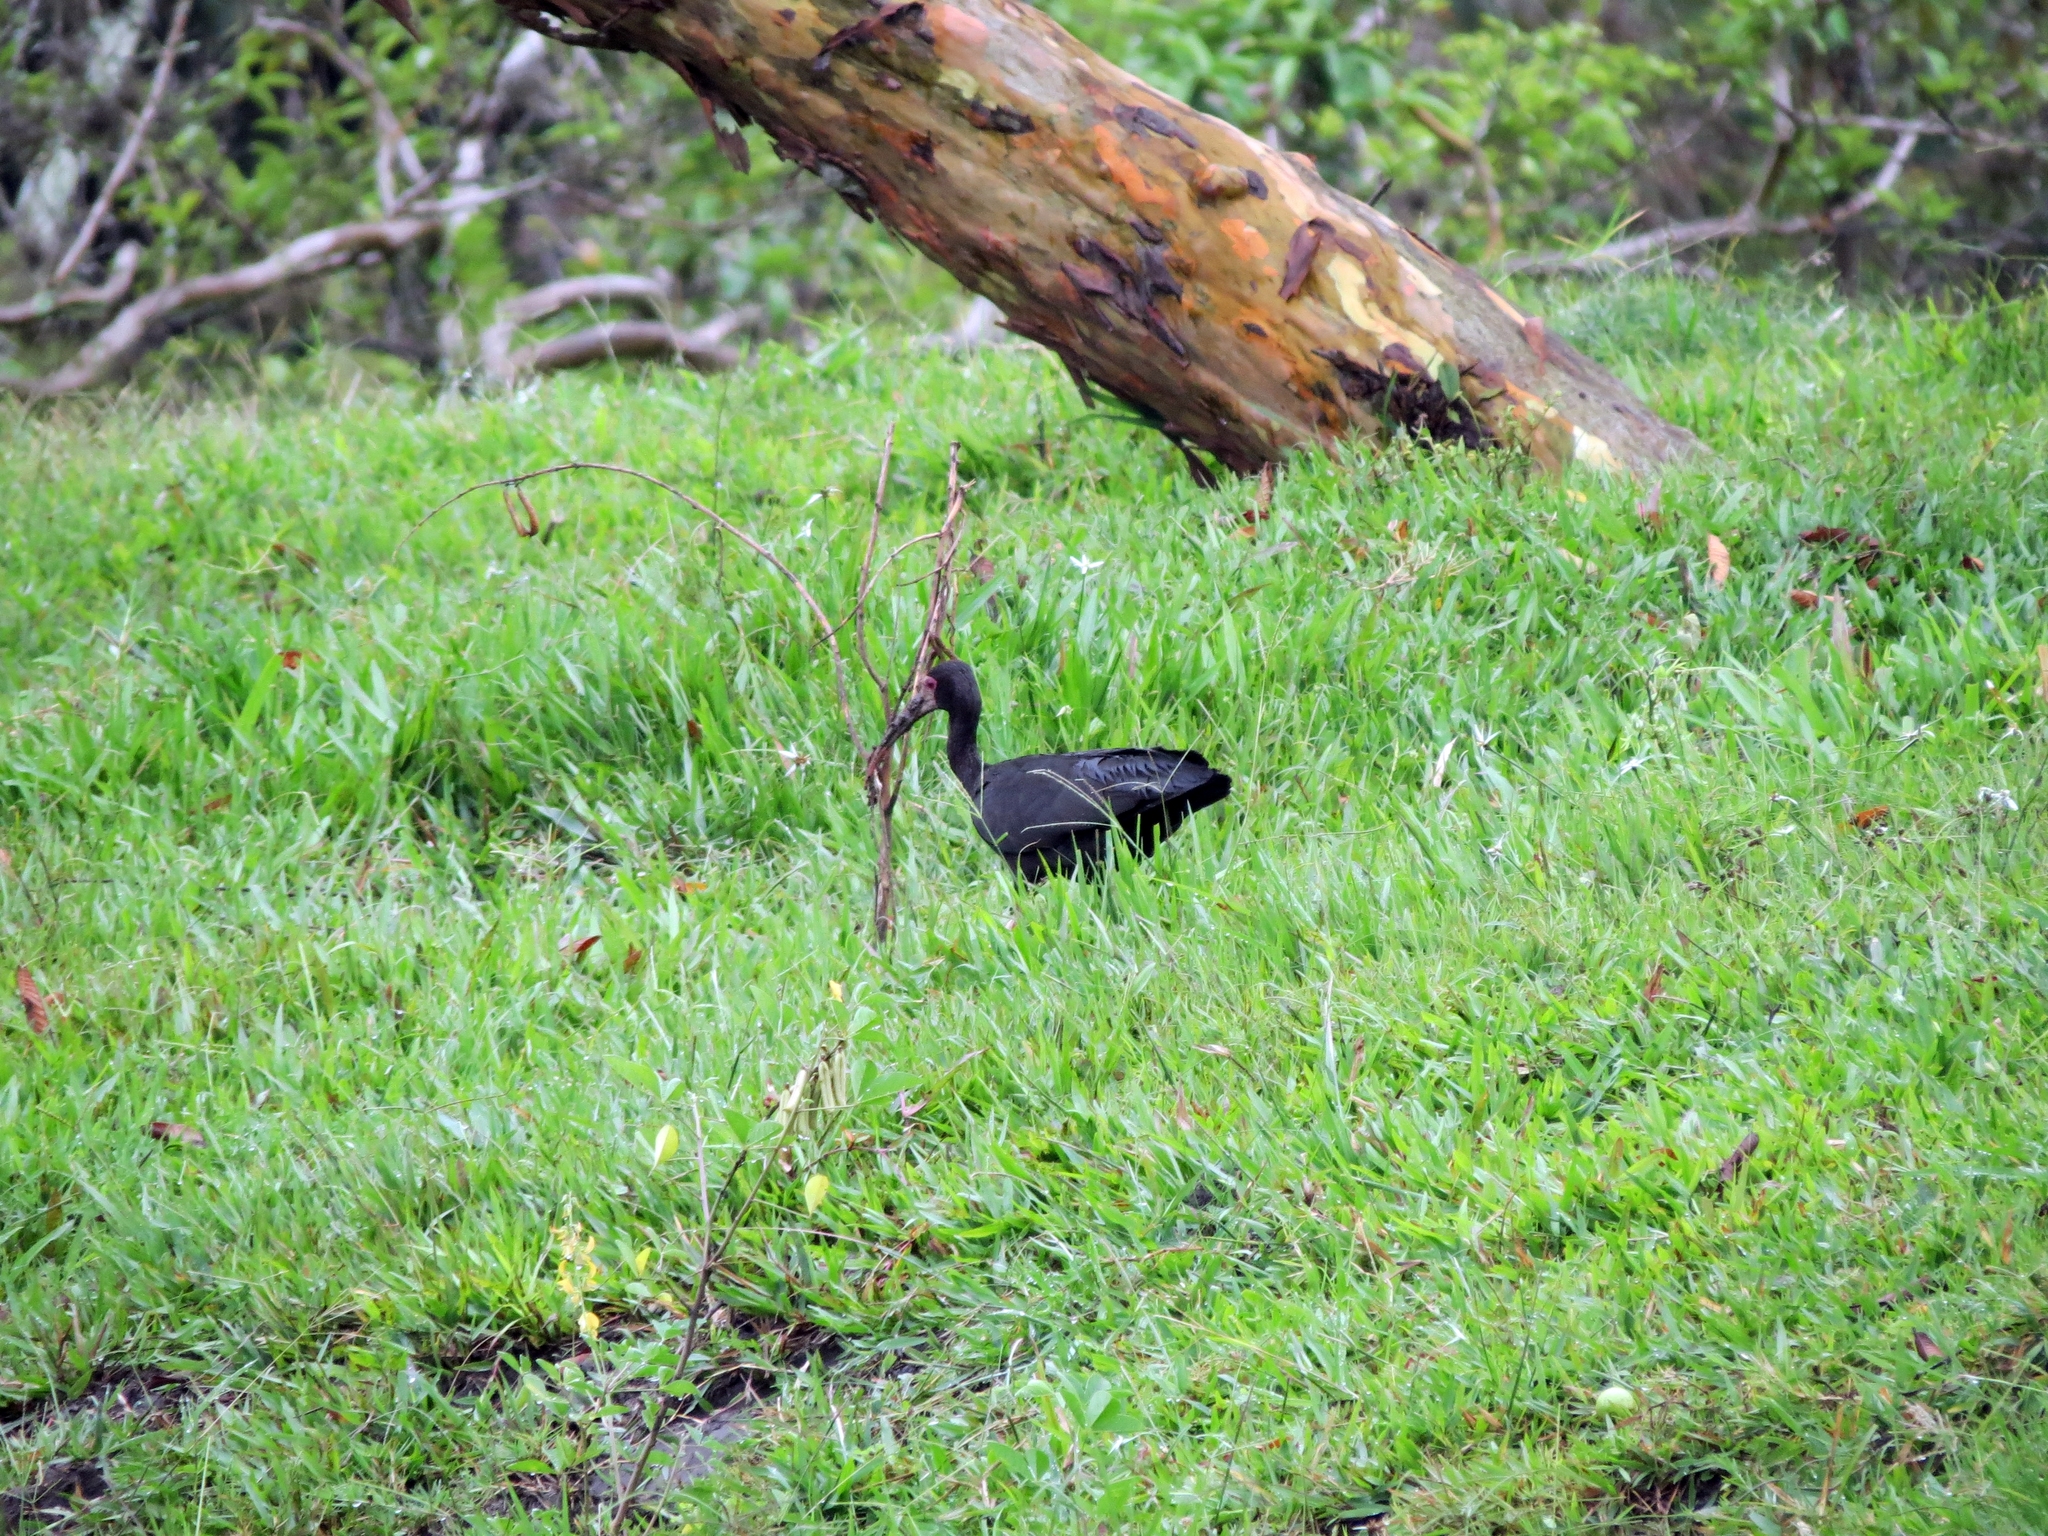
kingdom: Animalia
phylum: Chordata
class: Aves
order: Pelecaniformes
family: Threskiornithidae
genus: Phimosus
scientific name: Phimosus infuscatus
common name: Bare-faced ibis
